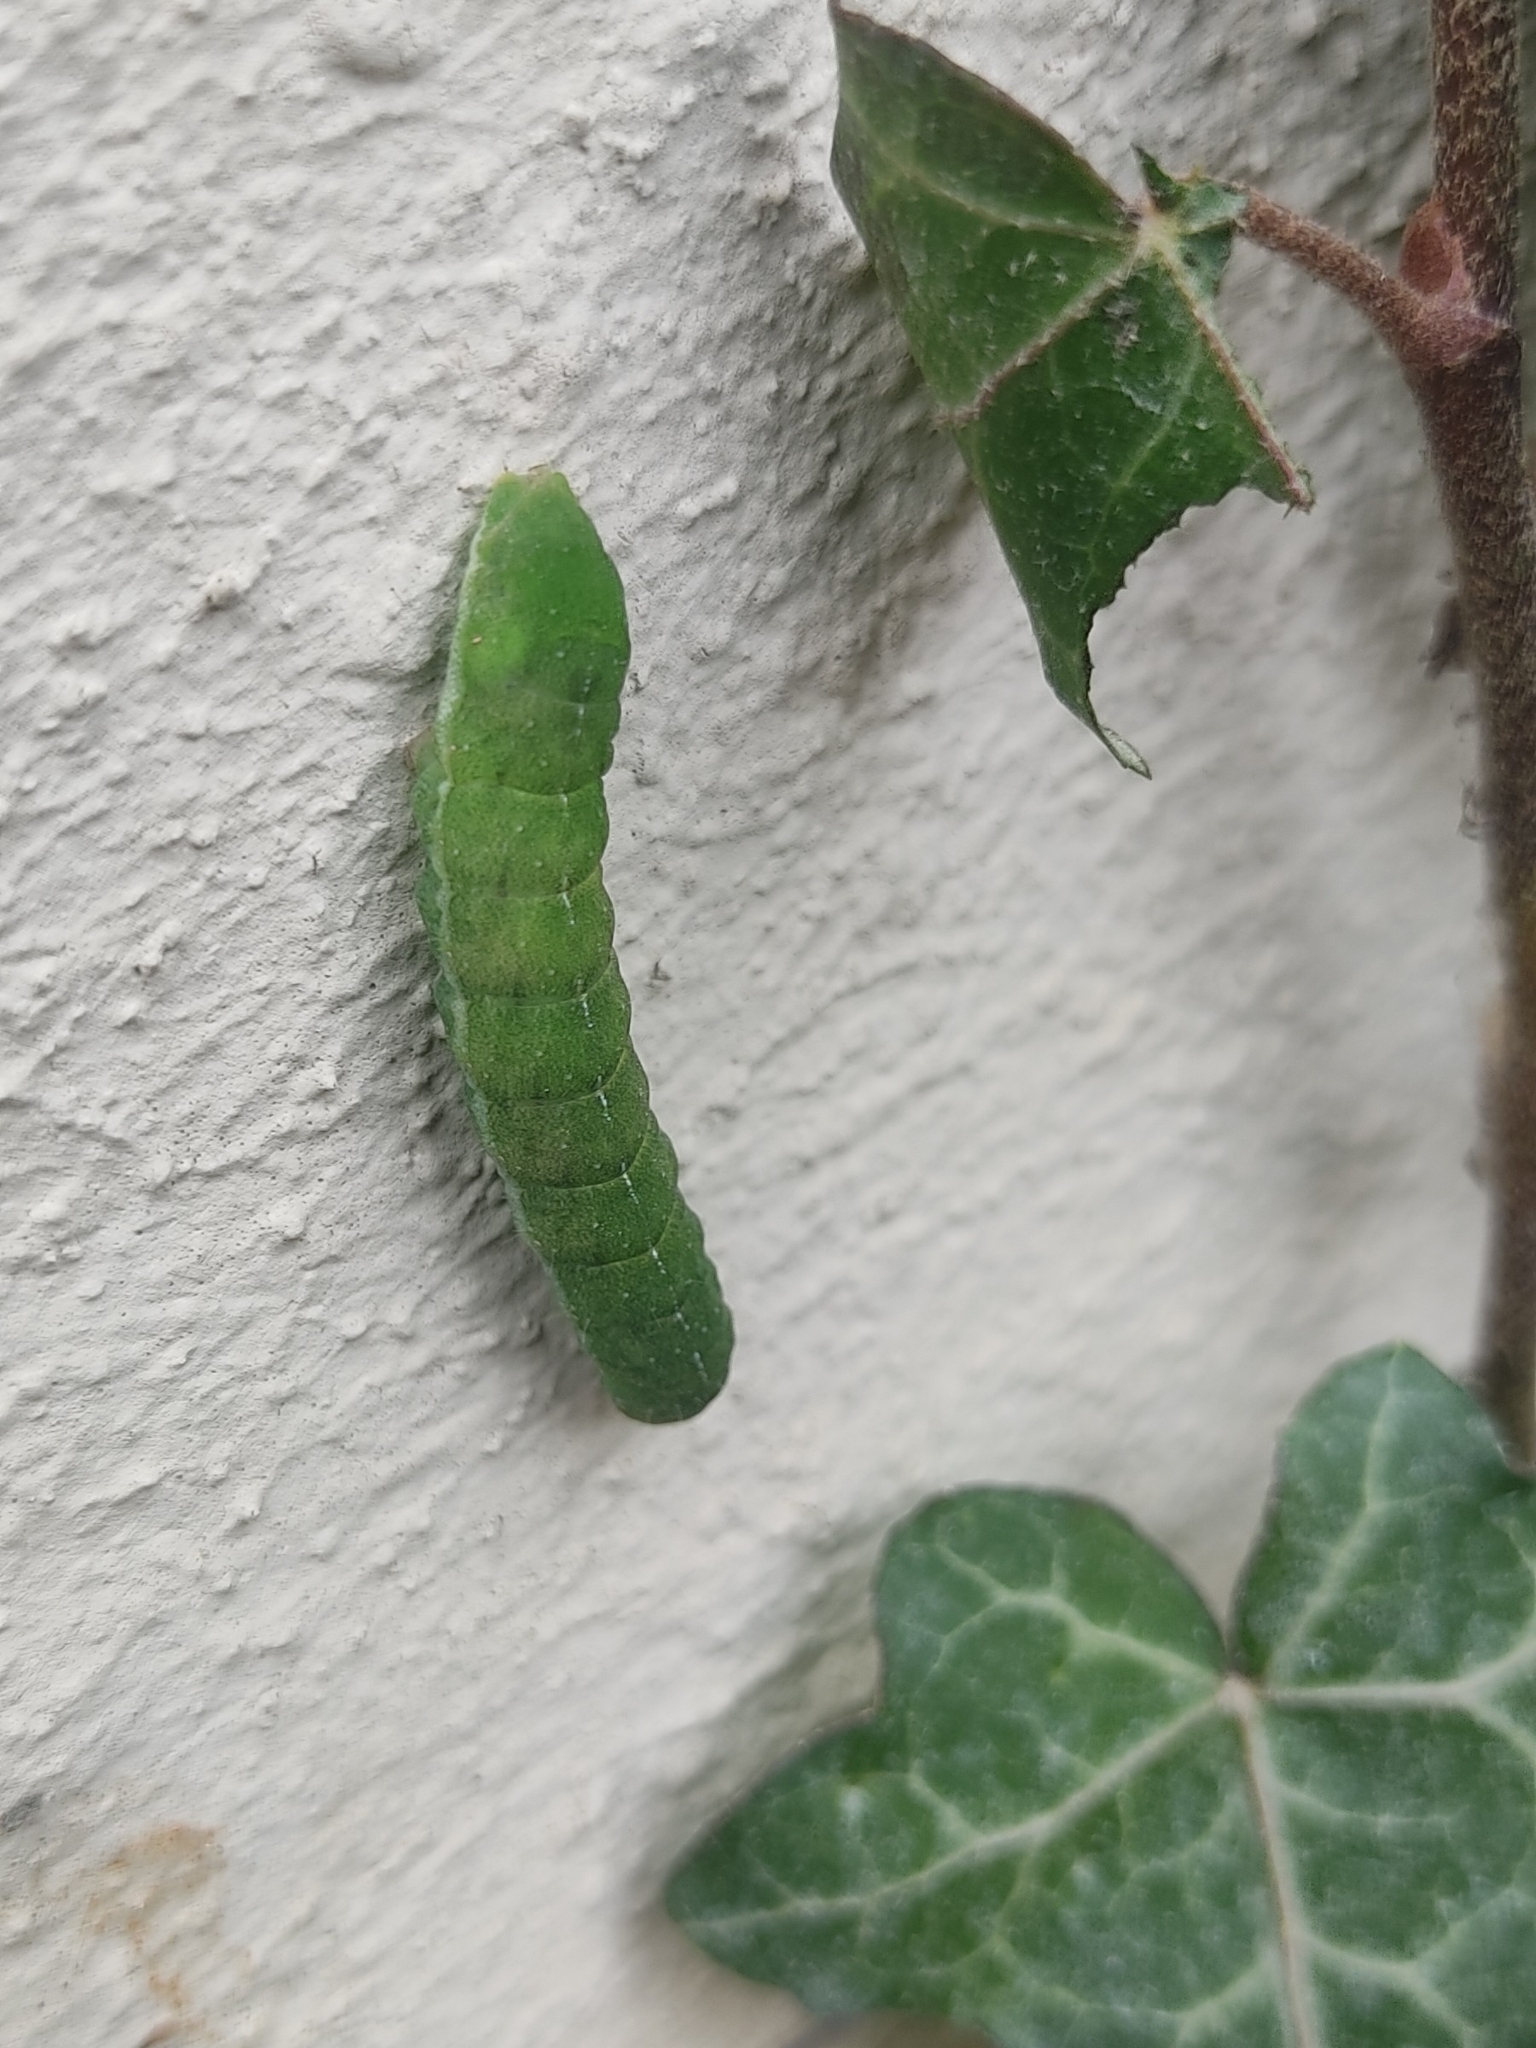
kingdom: Animalia
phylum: Arthropoda
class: Insecta
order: Lepidoptera
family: Noctuidae
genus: Phlogophora
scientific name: Phlogophora meticulosa
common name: Angle shades
